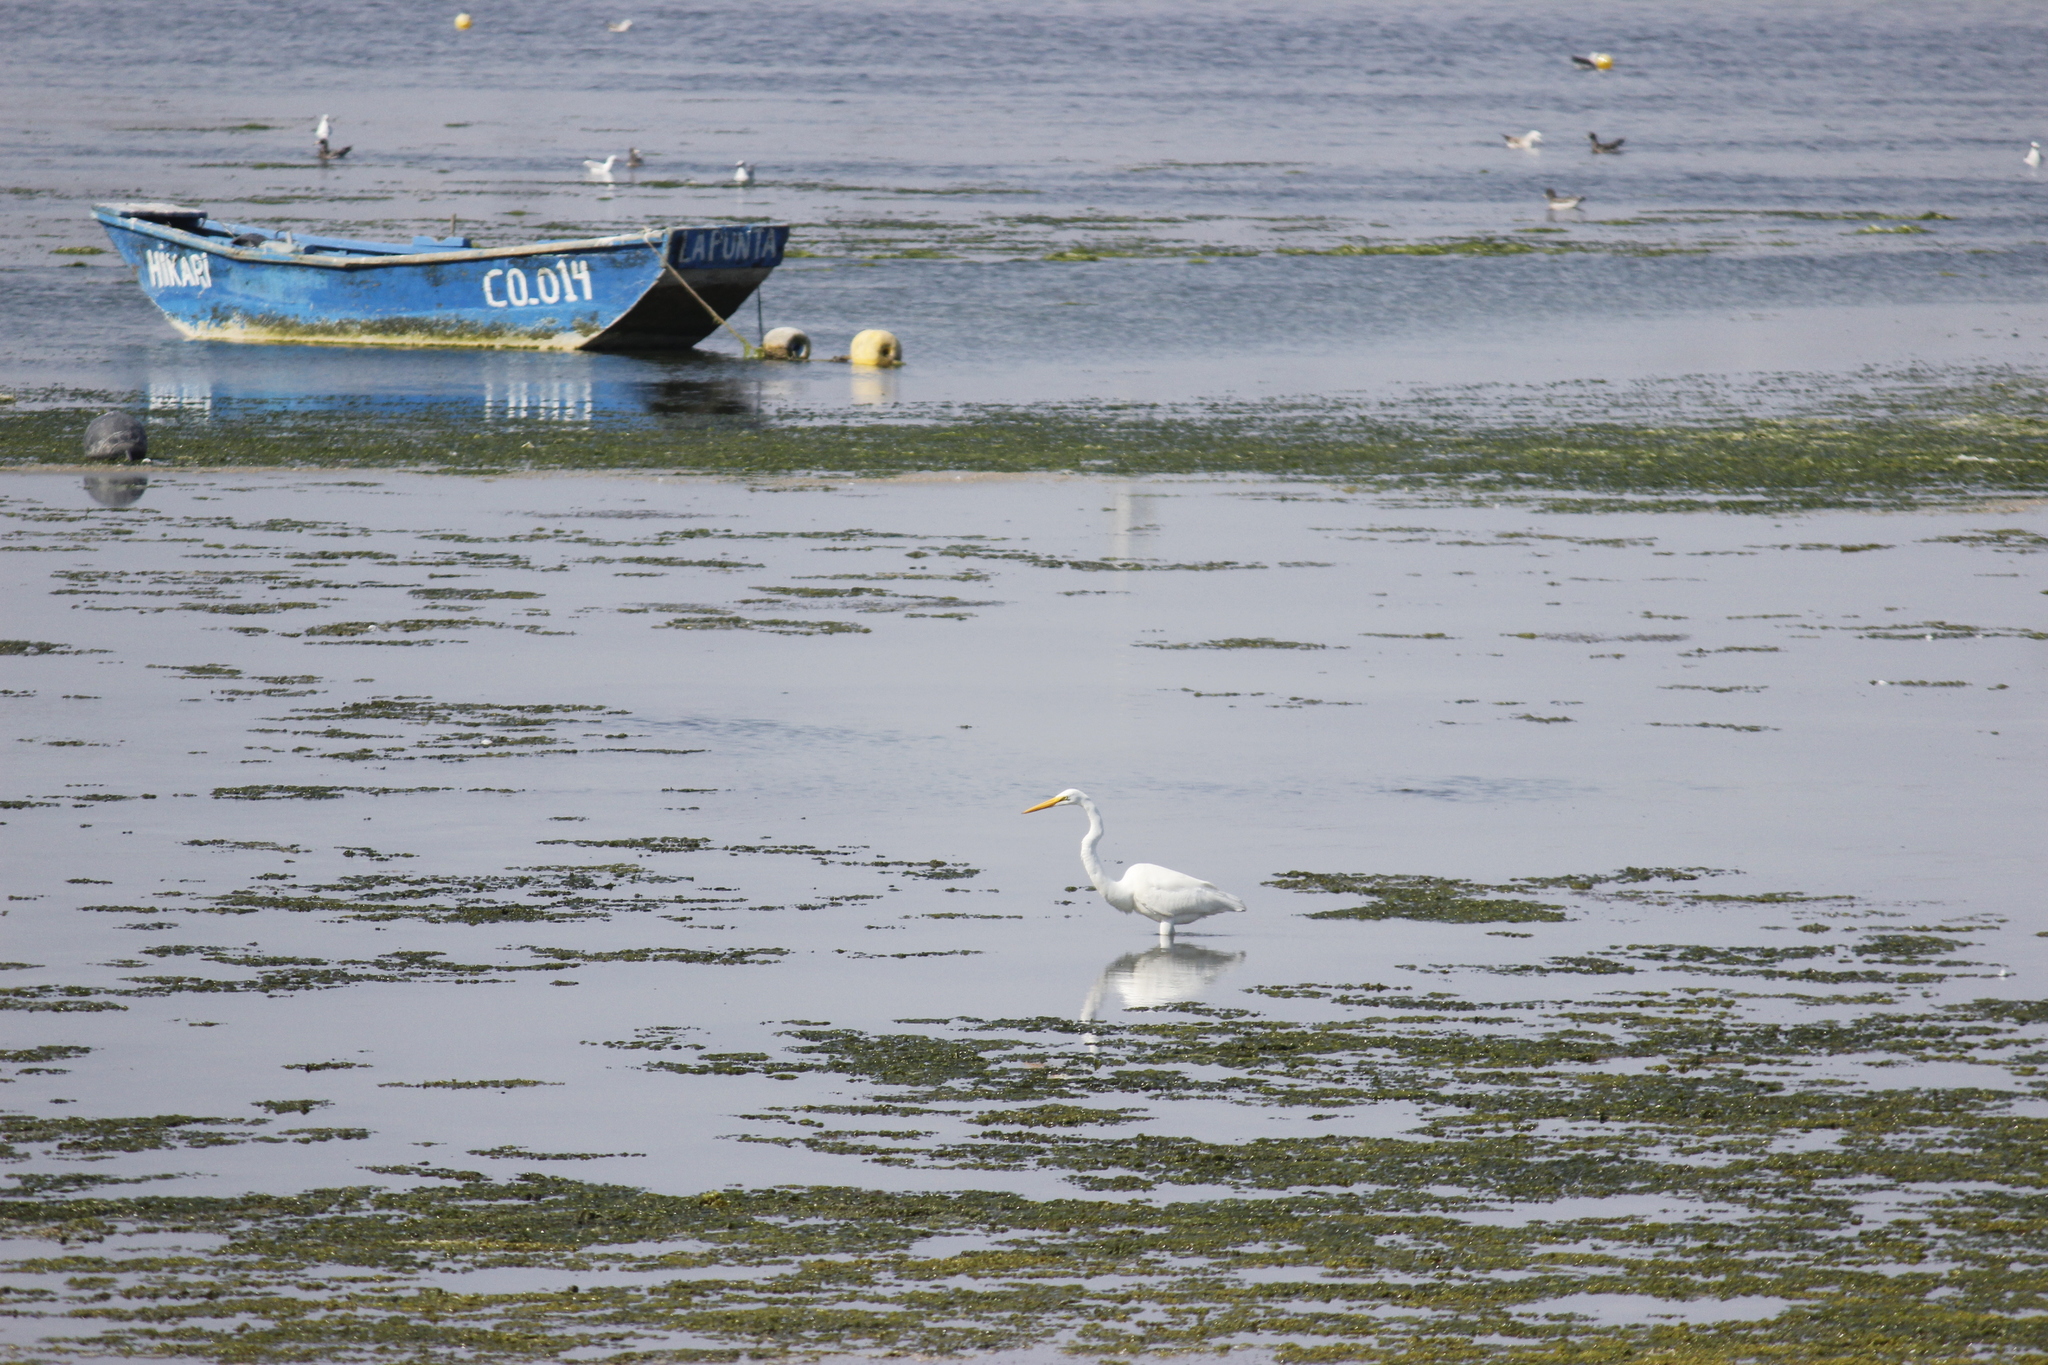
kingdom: Animalia
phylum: Chordata
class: Aves
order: Pelecaniformes
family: Ardeidae
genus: Ardea
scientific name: Ardea alba
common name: Great egret
